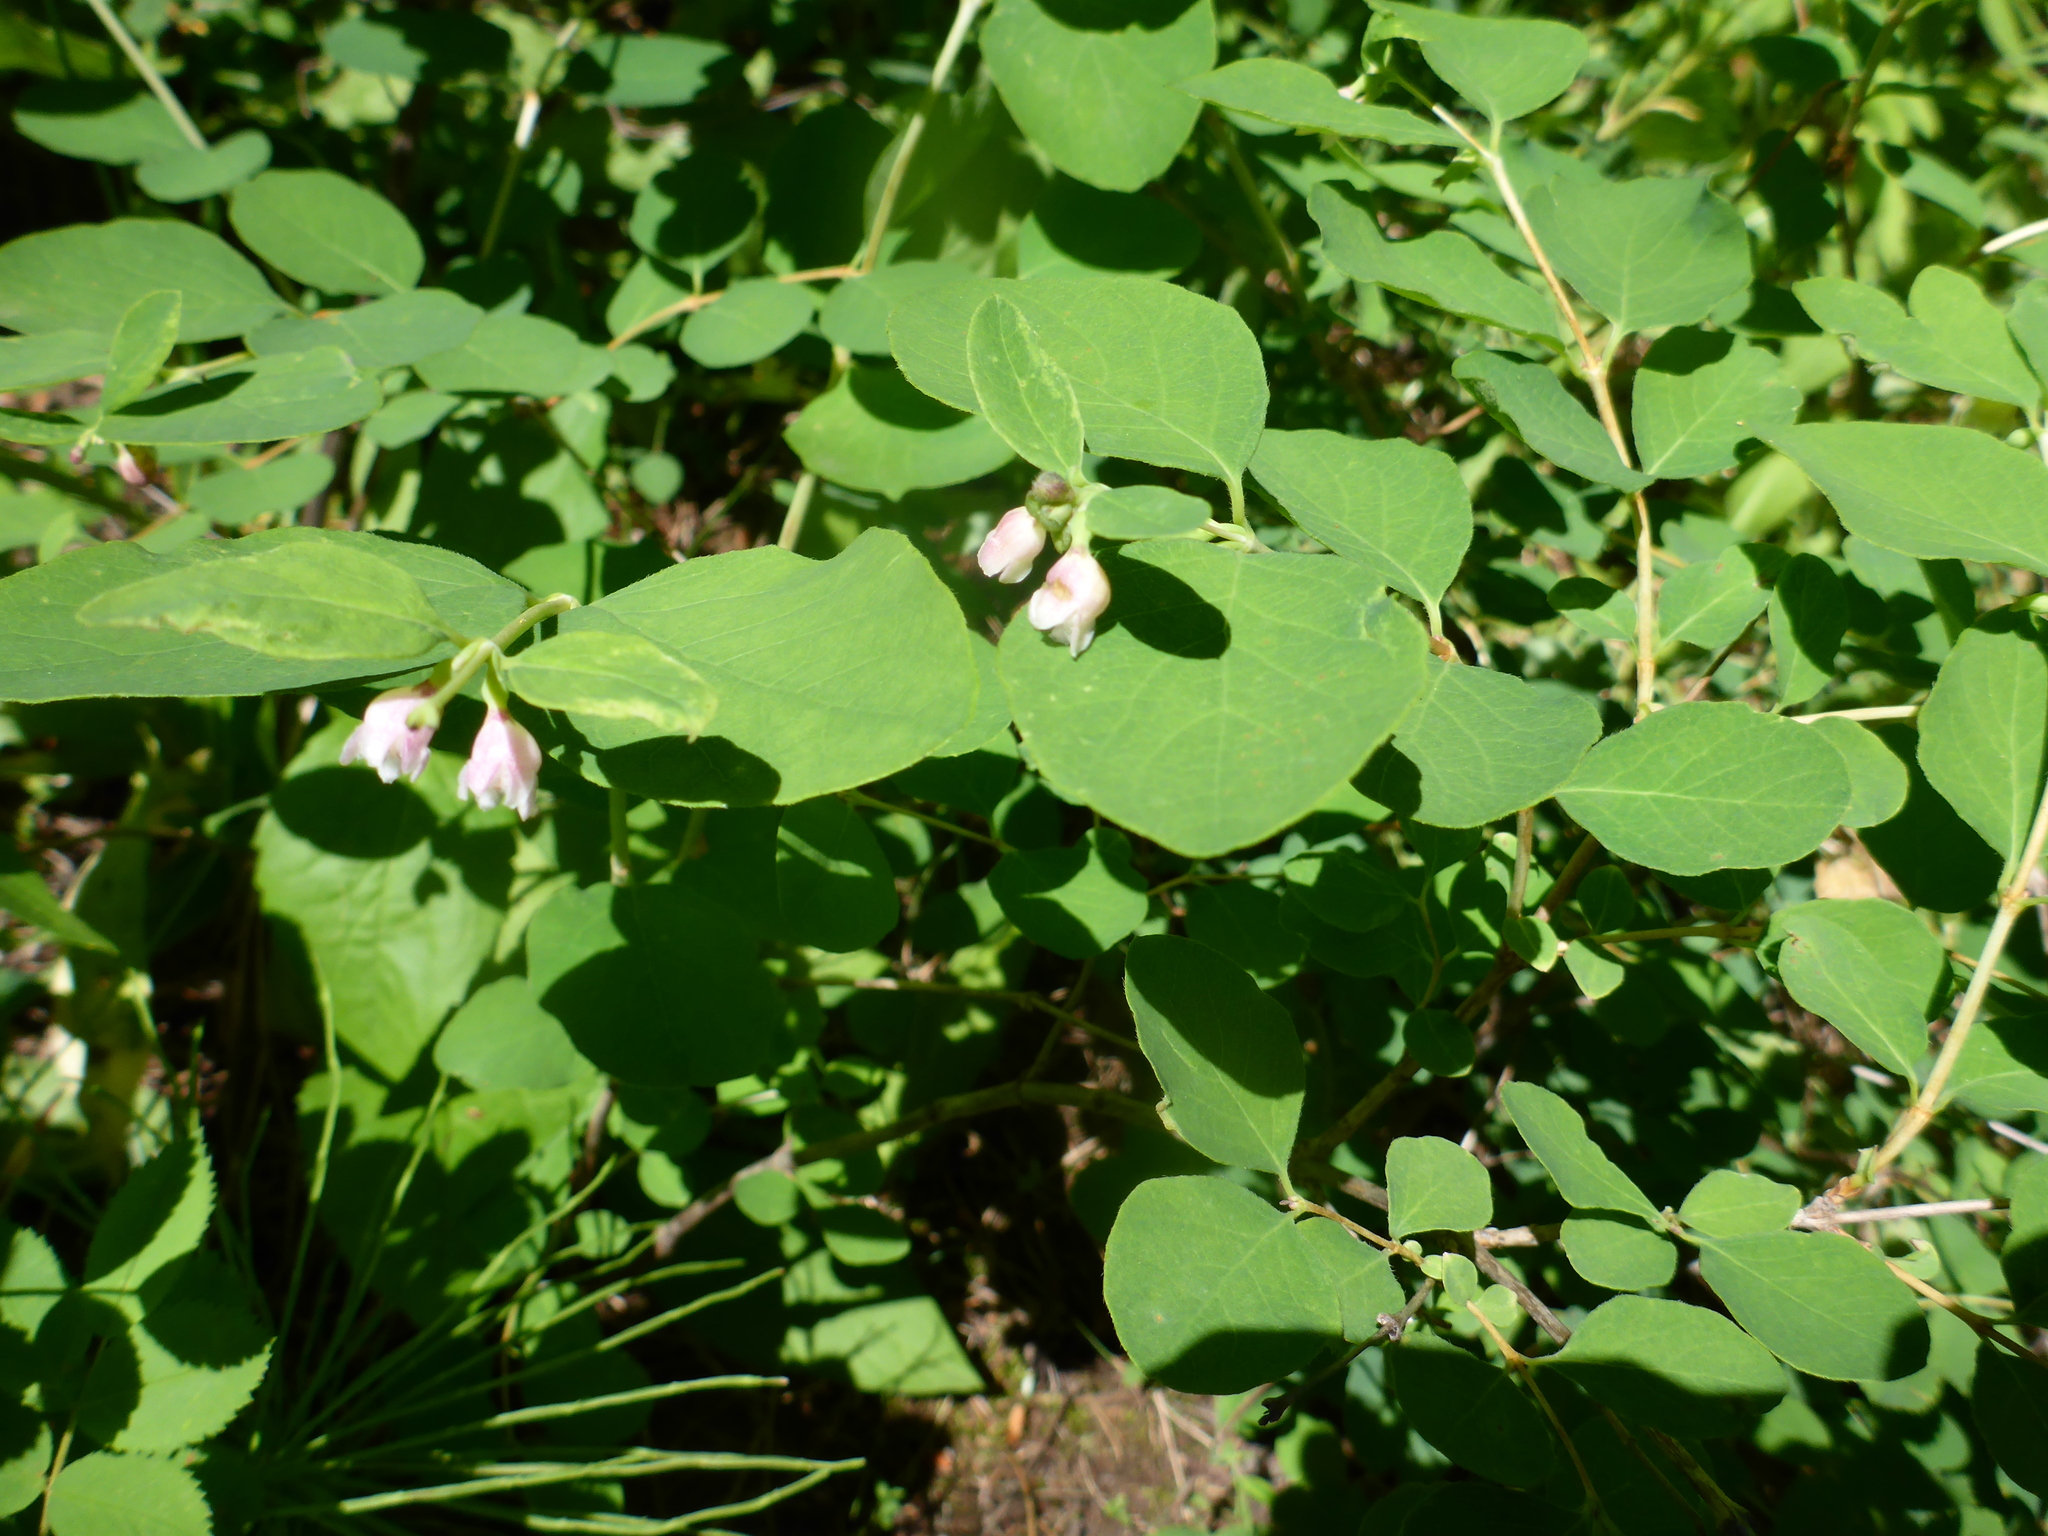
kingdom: Plantae
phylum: Tracheophyta
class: Magnoliopsida
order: Dipsacales
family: Caprifoliaceae
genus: Symphoricarpos
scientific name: Symphoricarpos albus
